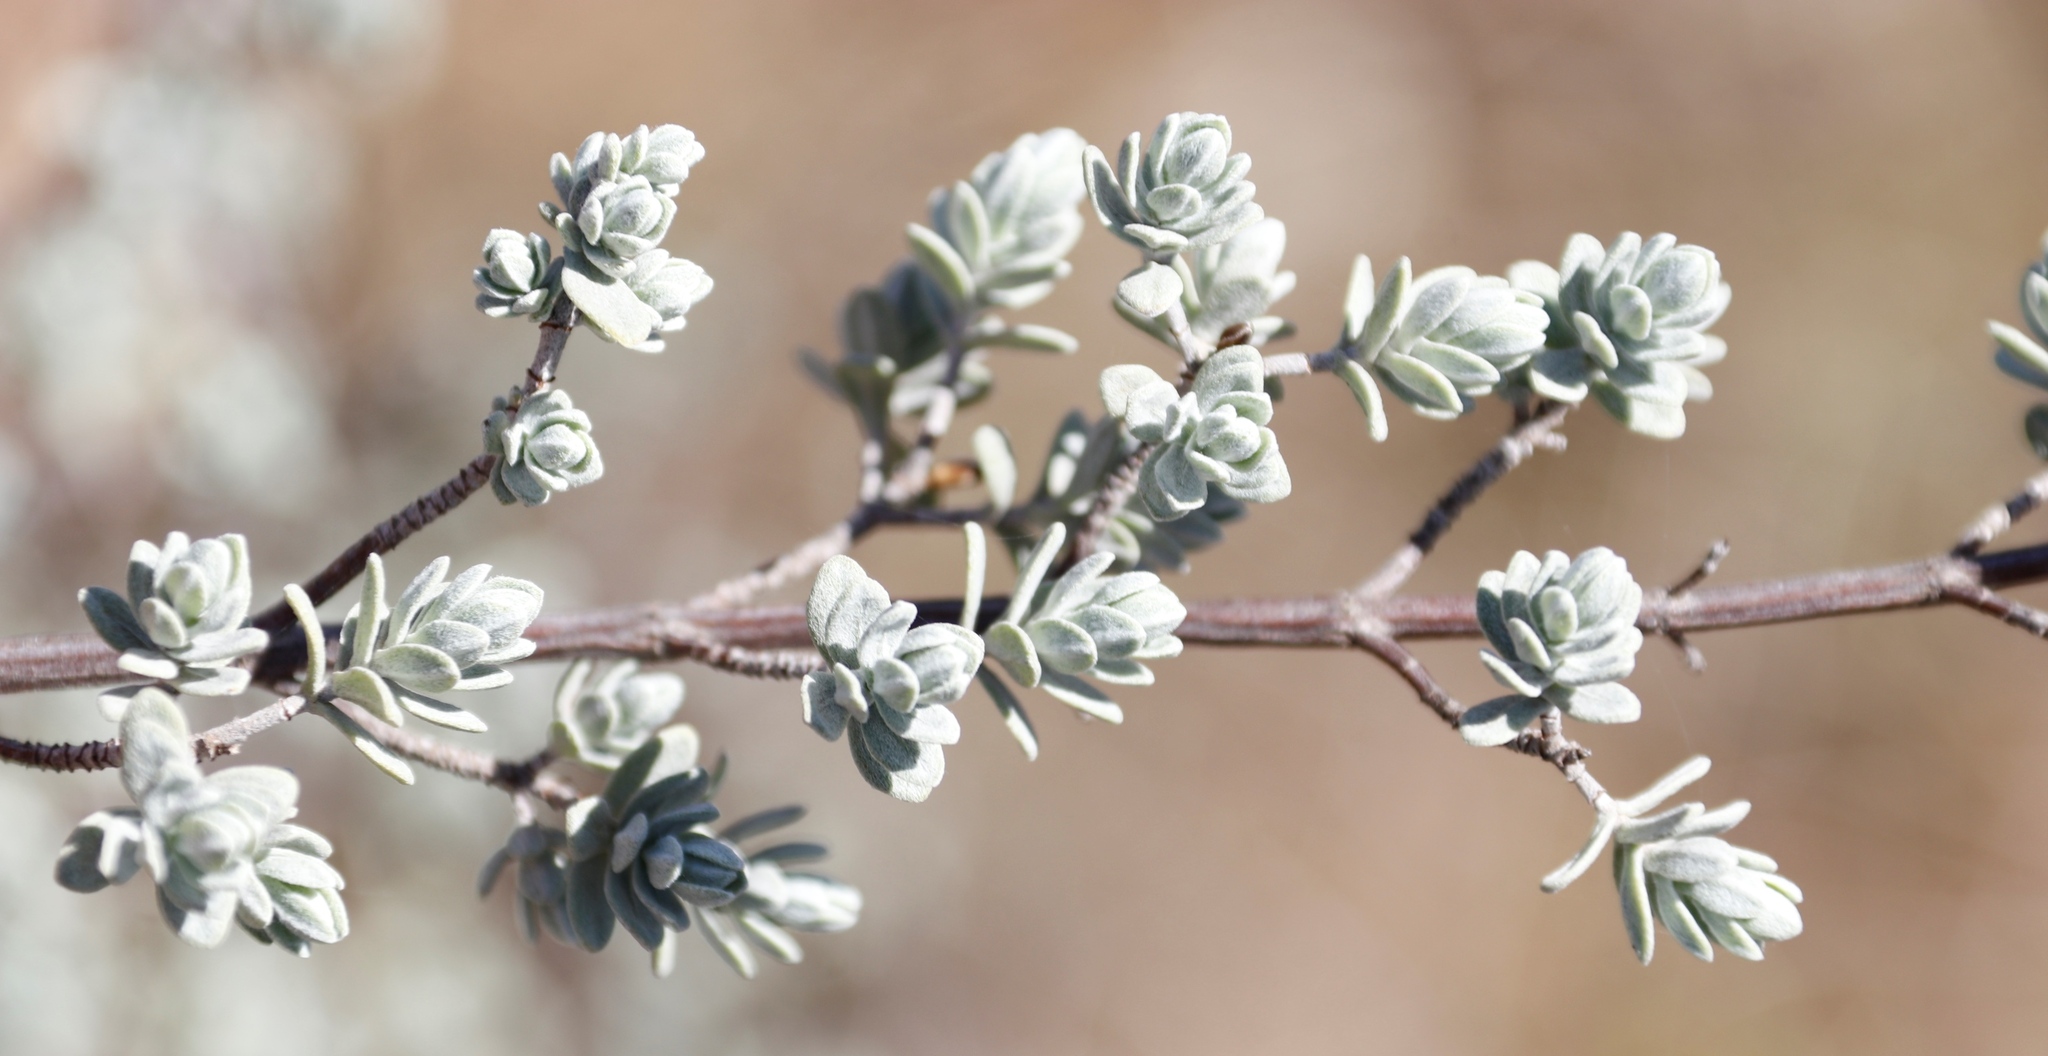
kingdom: Plantae
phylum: Tracheophyta
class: Magnoliopsida
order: Asterales
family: Asteraceae
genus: Pteronia
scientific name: Pteronia incana
